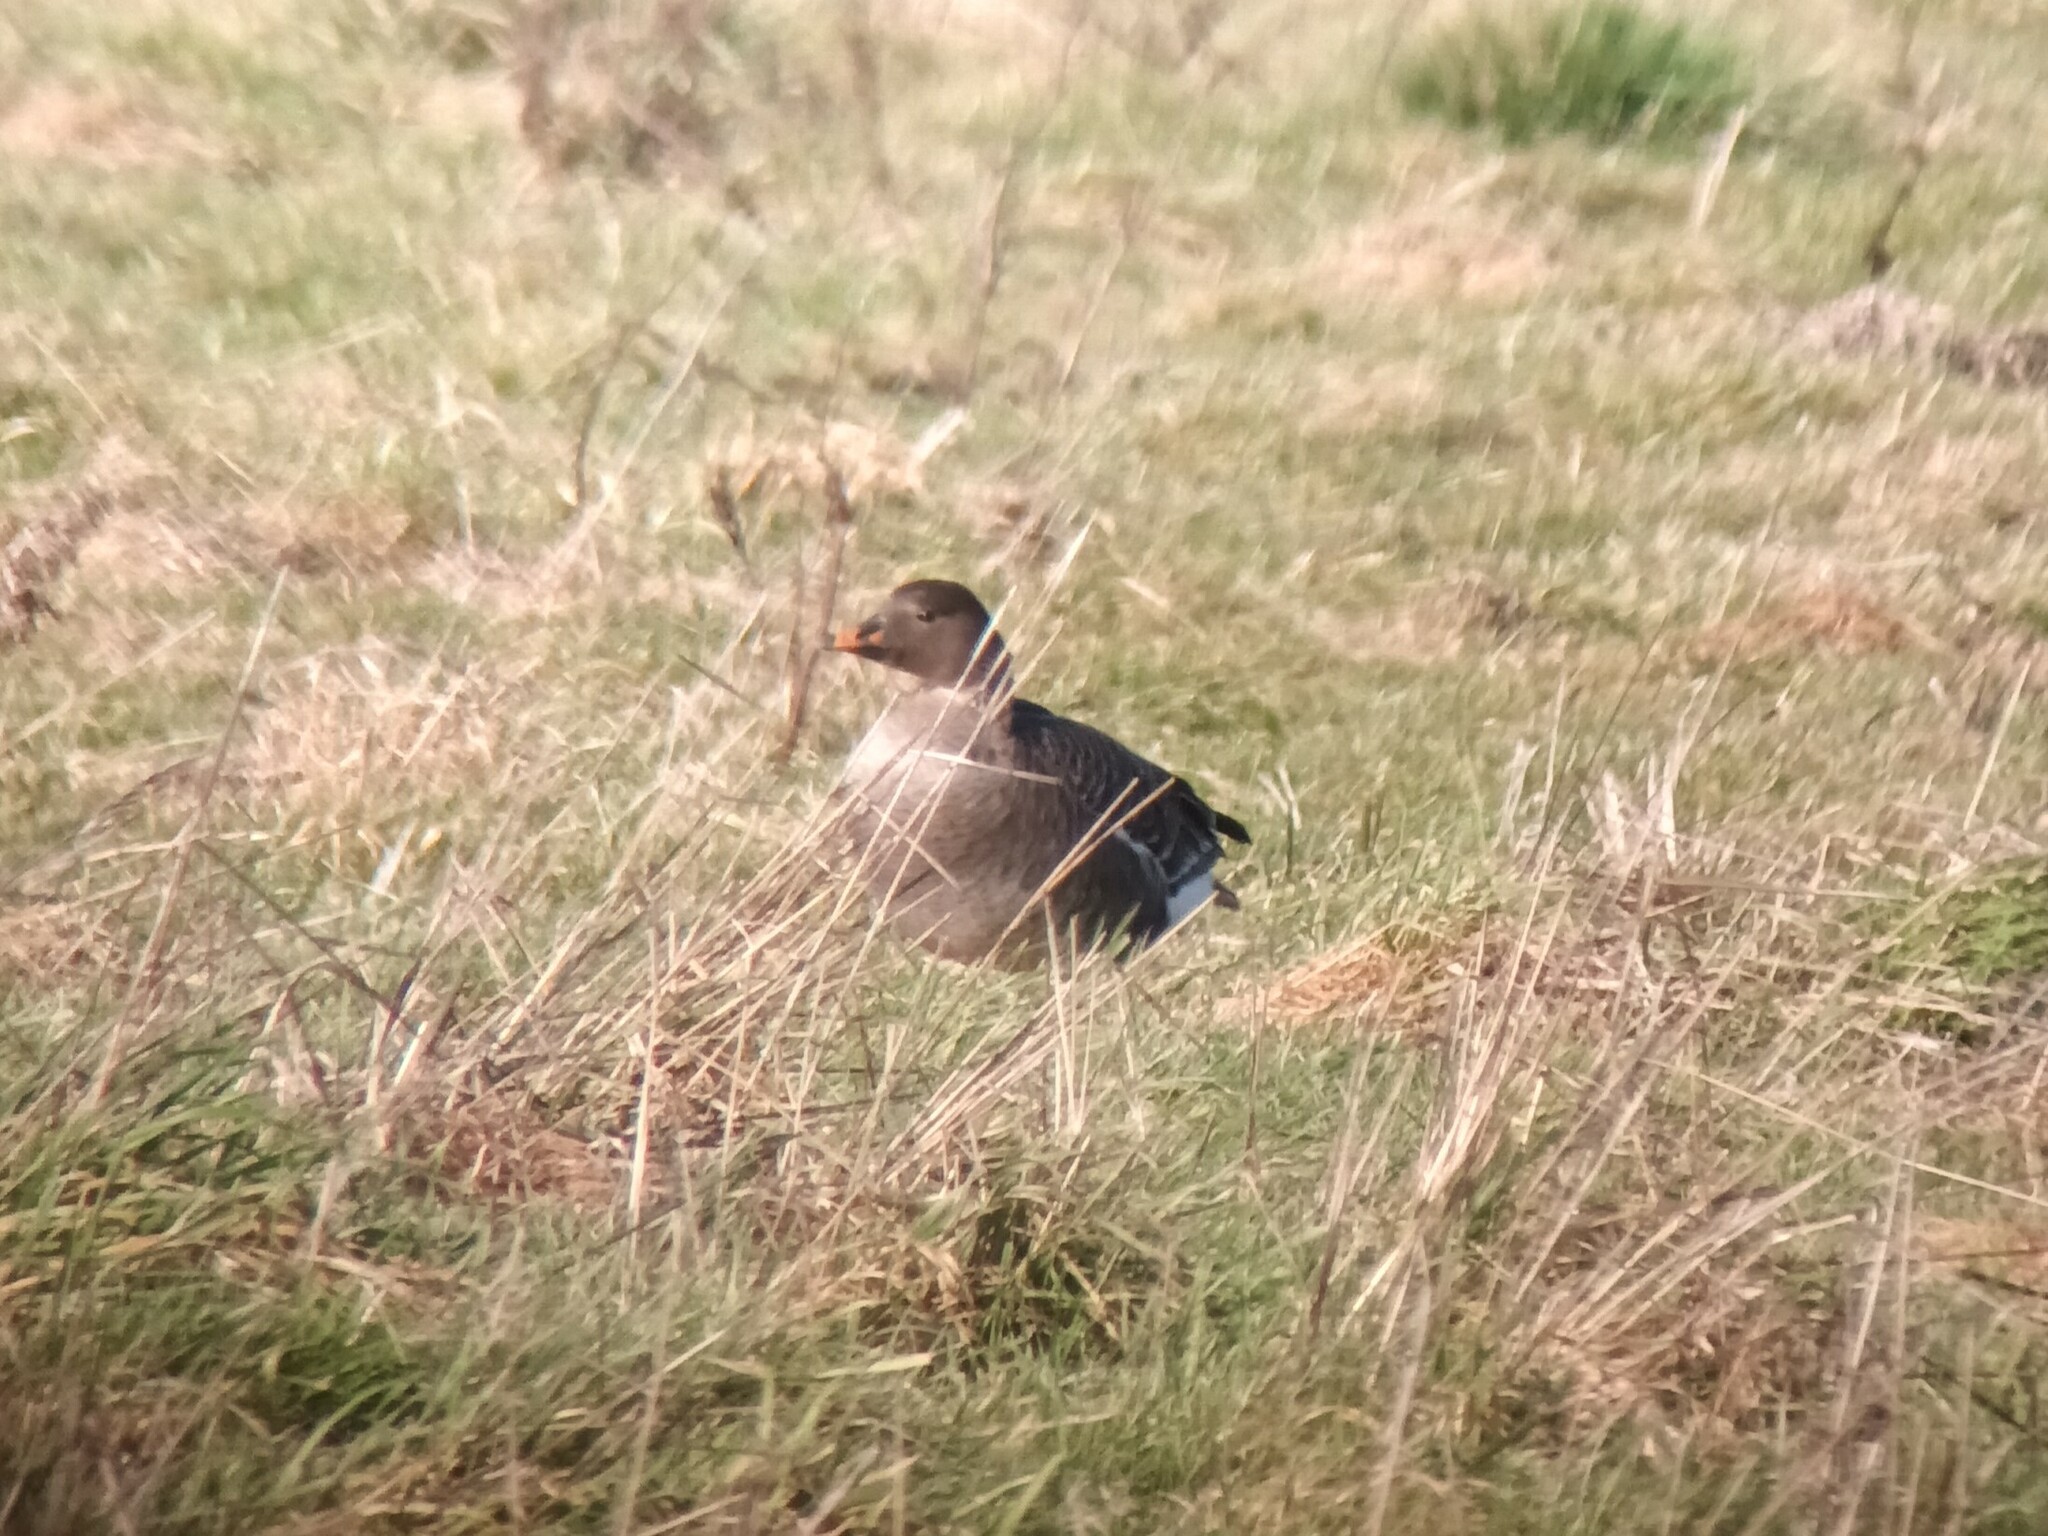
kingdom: Animalia
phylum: Chordata
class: Aves
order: Anseriformes
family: Anatidae
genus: Anser
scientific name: Anser serrirostris
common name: Tundra bean goose
